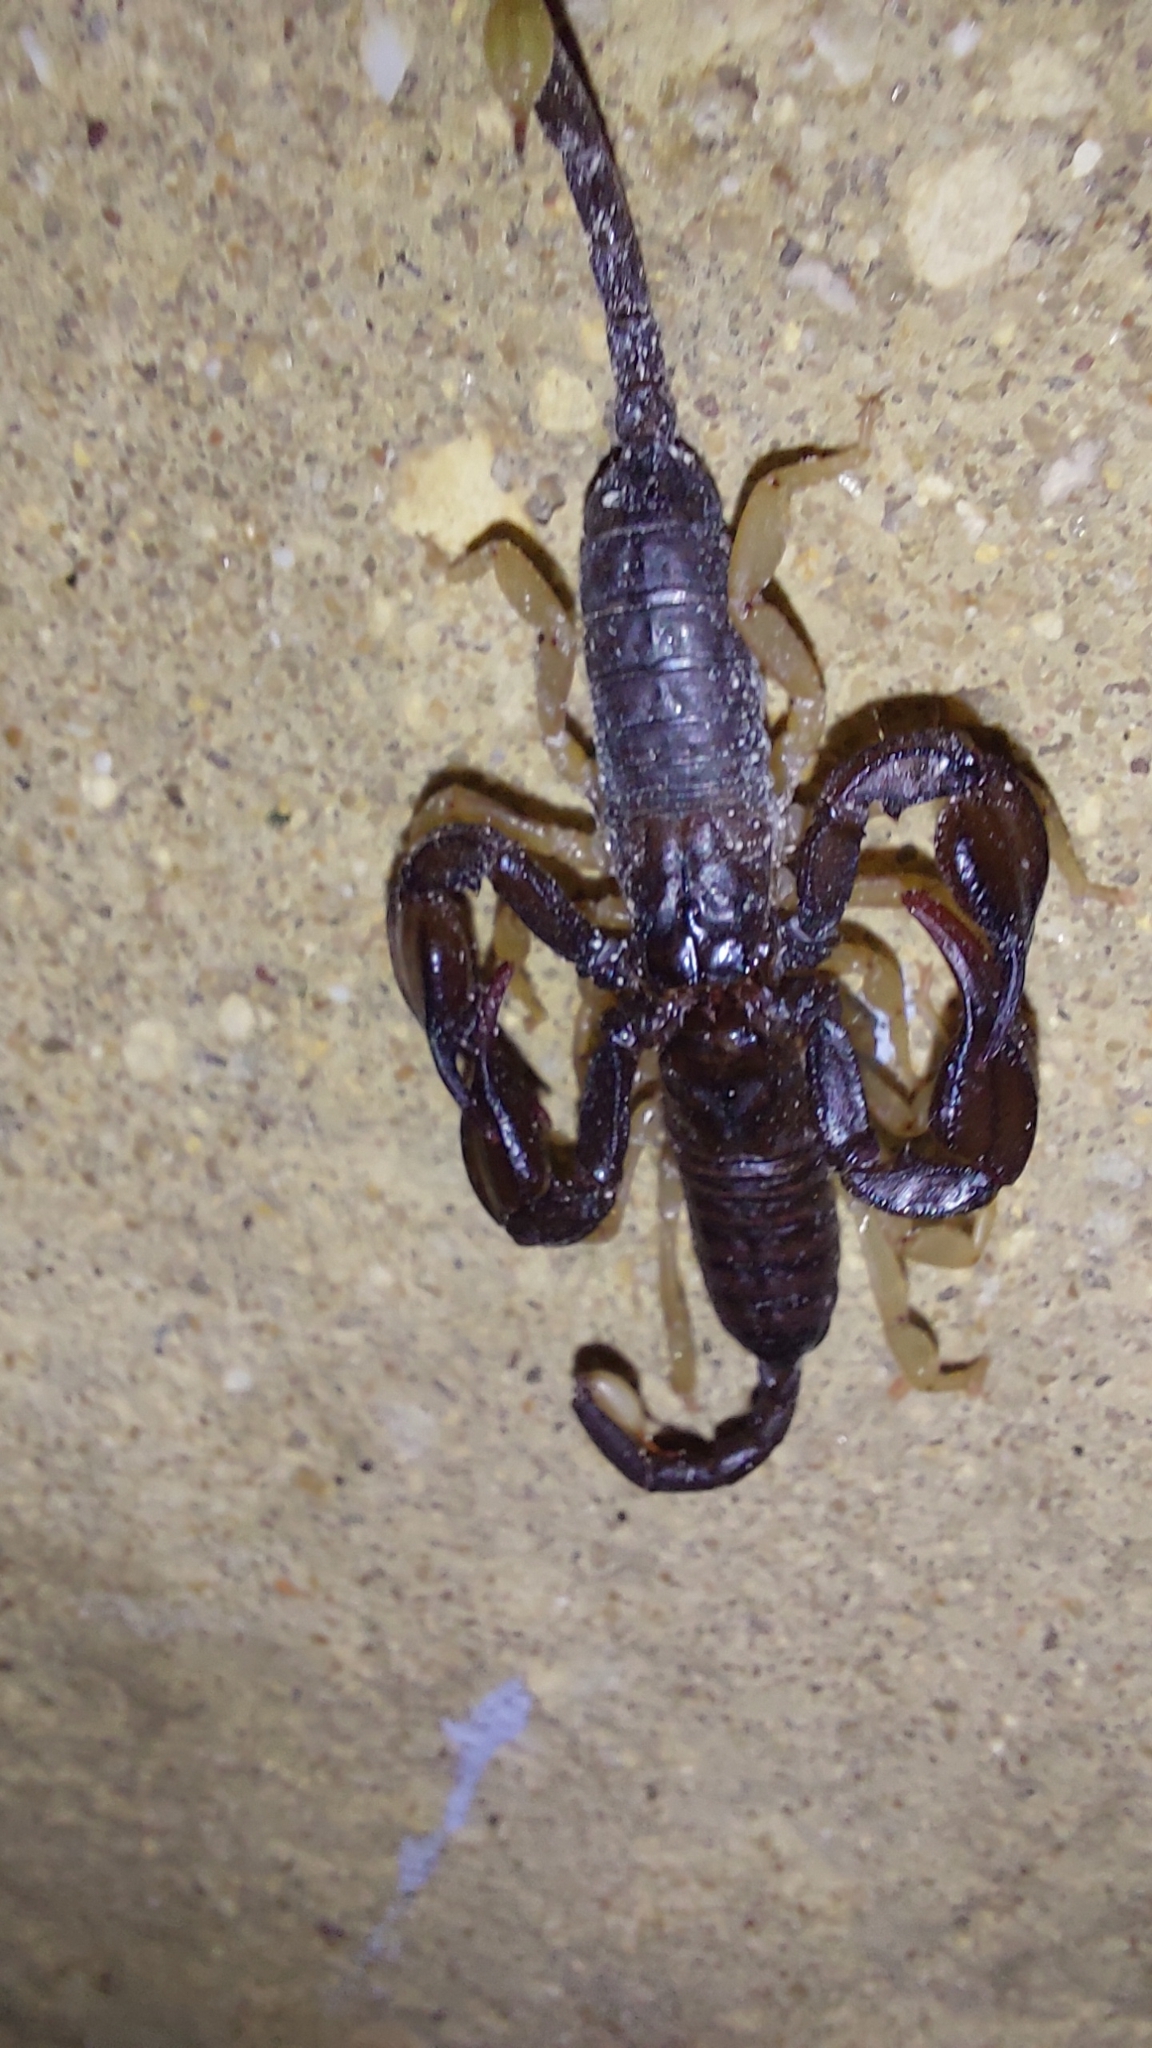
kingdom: Animalia
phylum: Arthropoda
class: Arachnida
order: Scorpiones
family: Euscorpiidae
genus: Euscorpius
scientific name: Euscorpius flavicaudis
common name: European yellow-tailed scorpion
